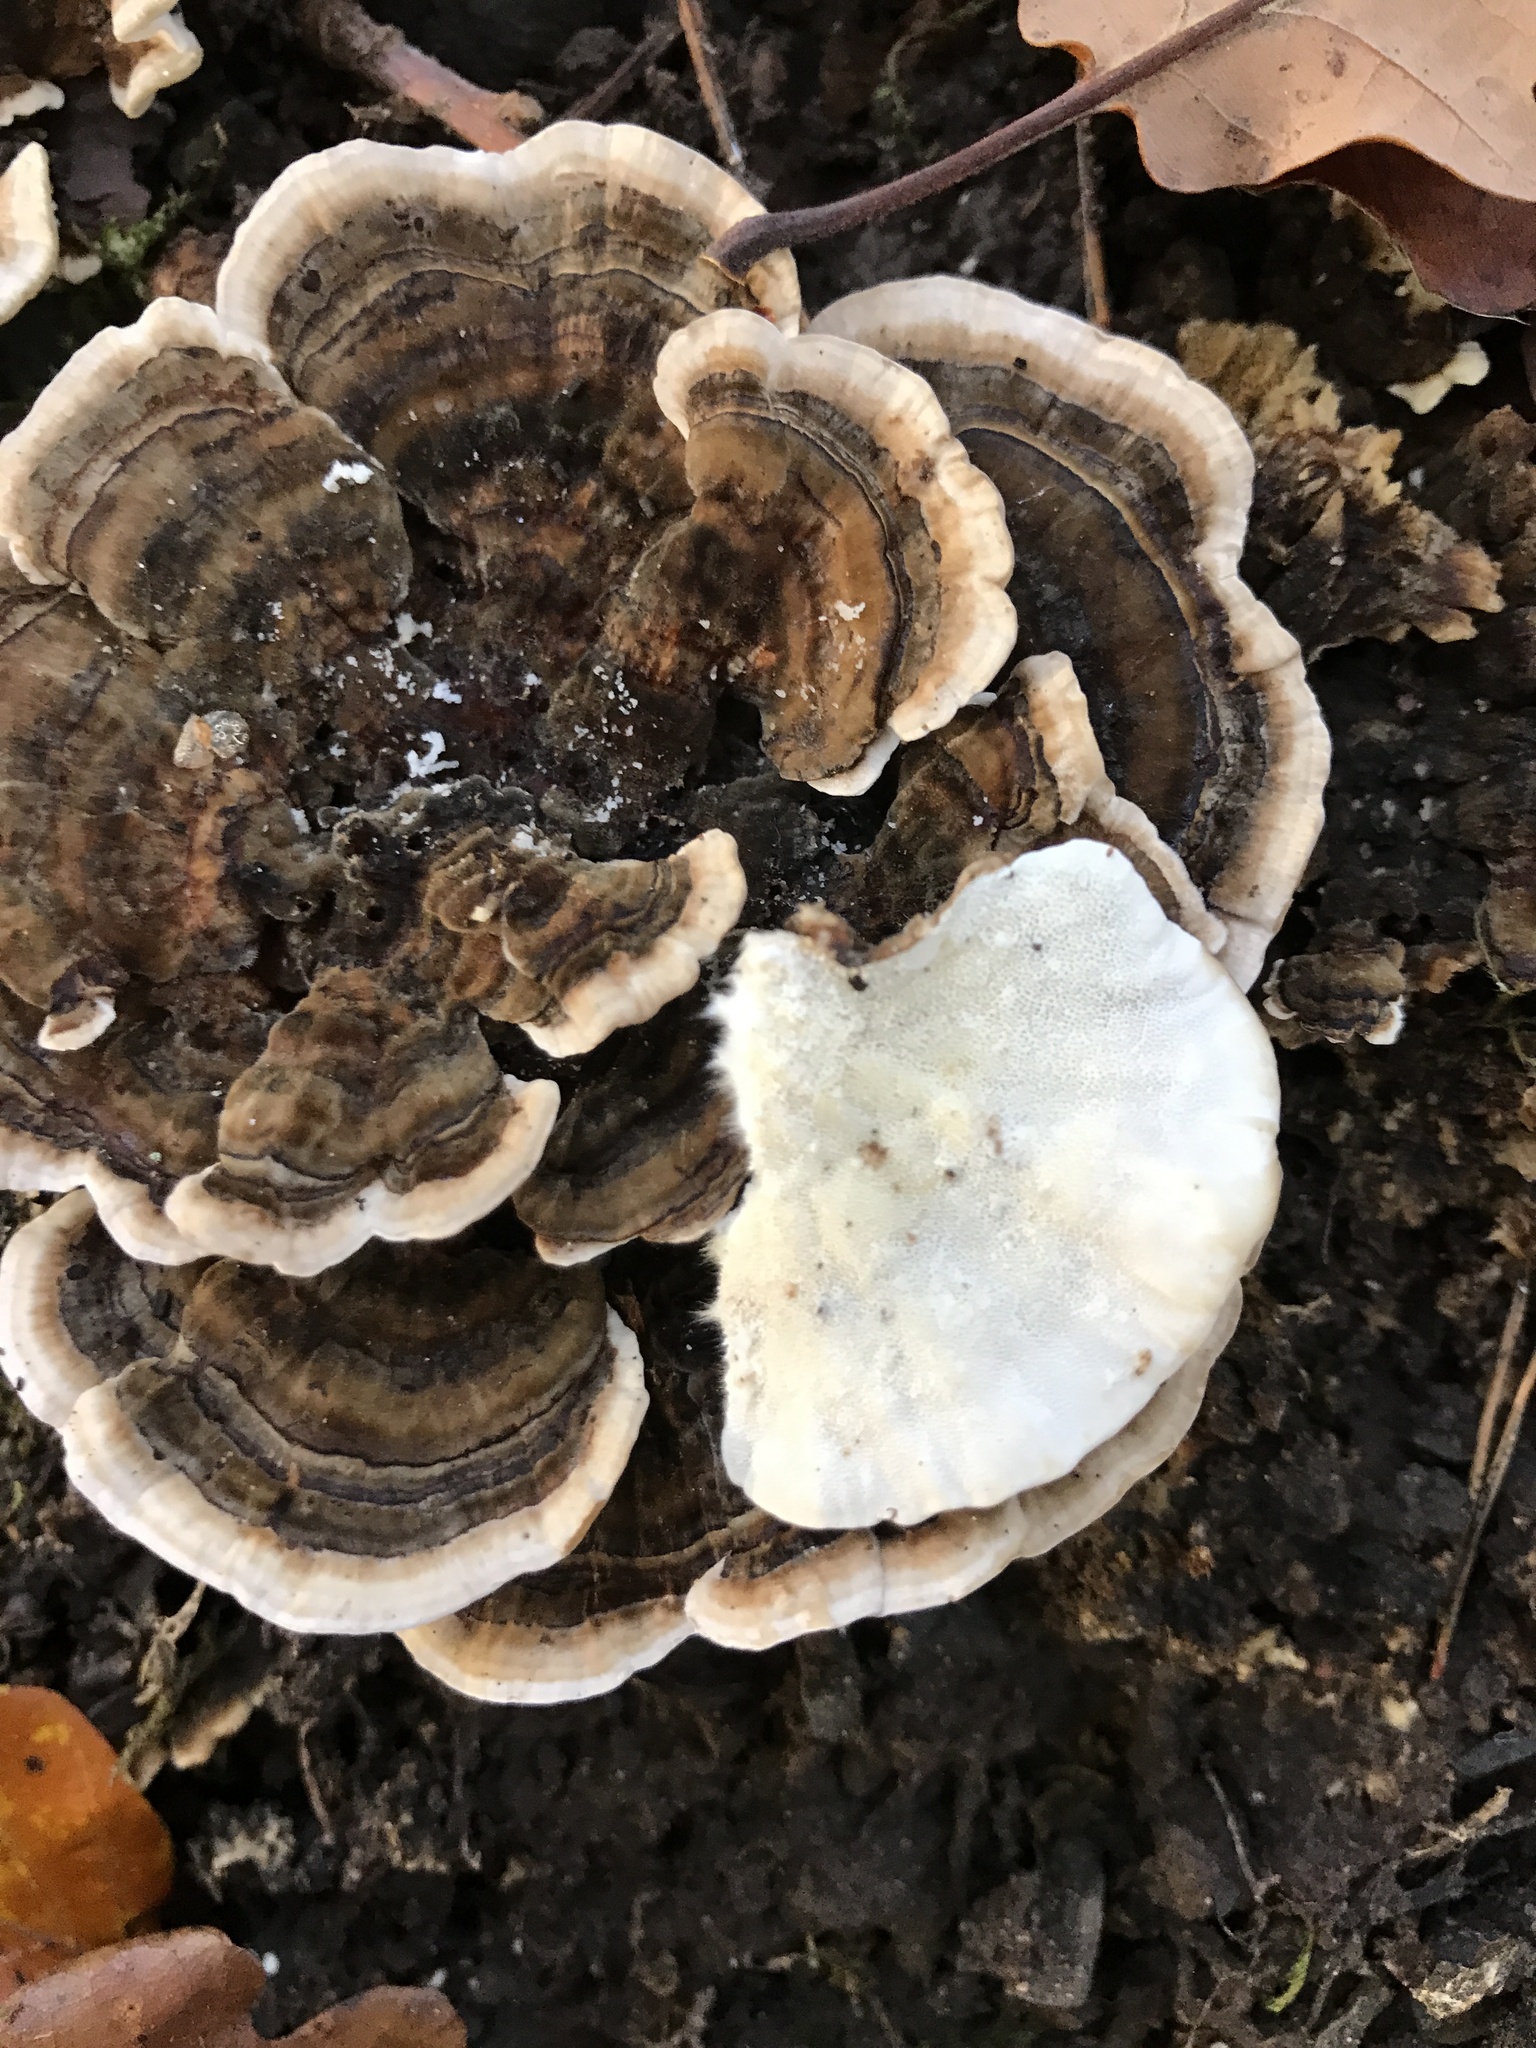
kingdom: Fungi
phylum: Basidiomycota
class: Agaricomycetes
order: Polyporales
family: Polyporaceae
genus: Trametes
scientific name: Trametes versicolor
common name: Turkeytail
